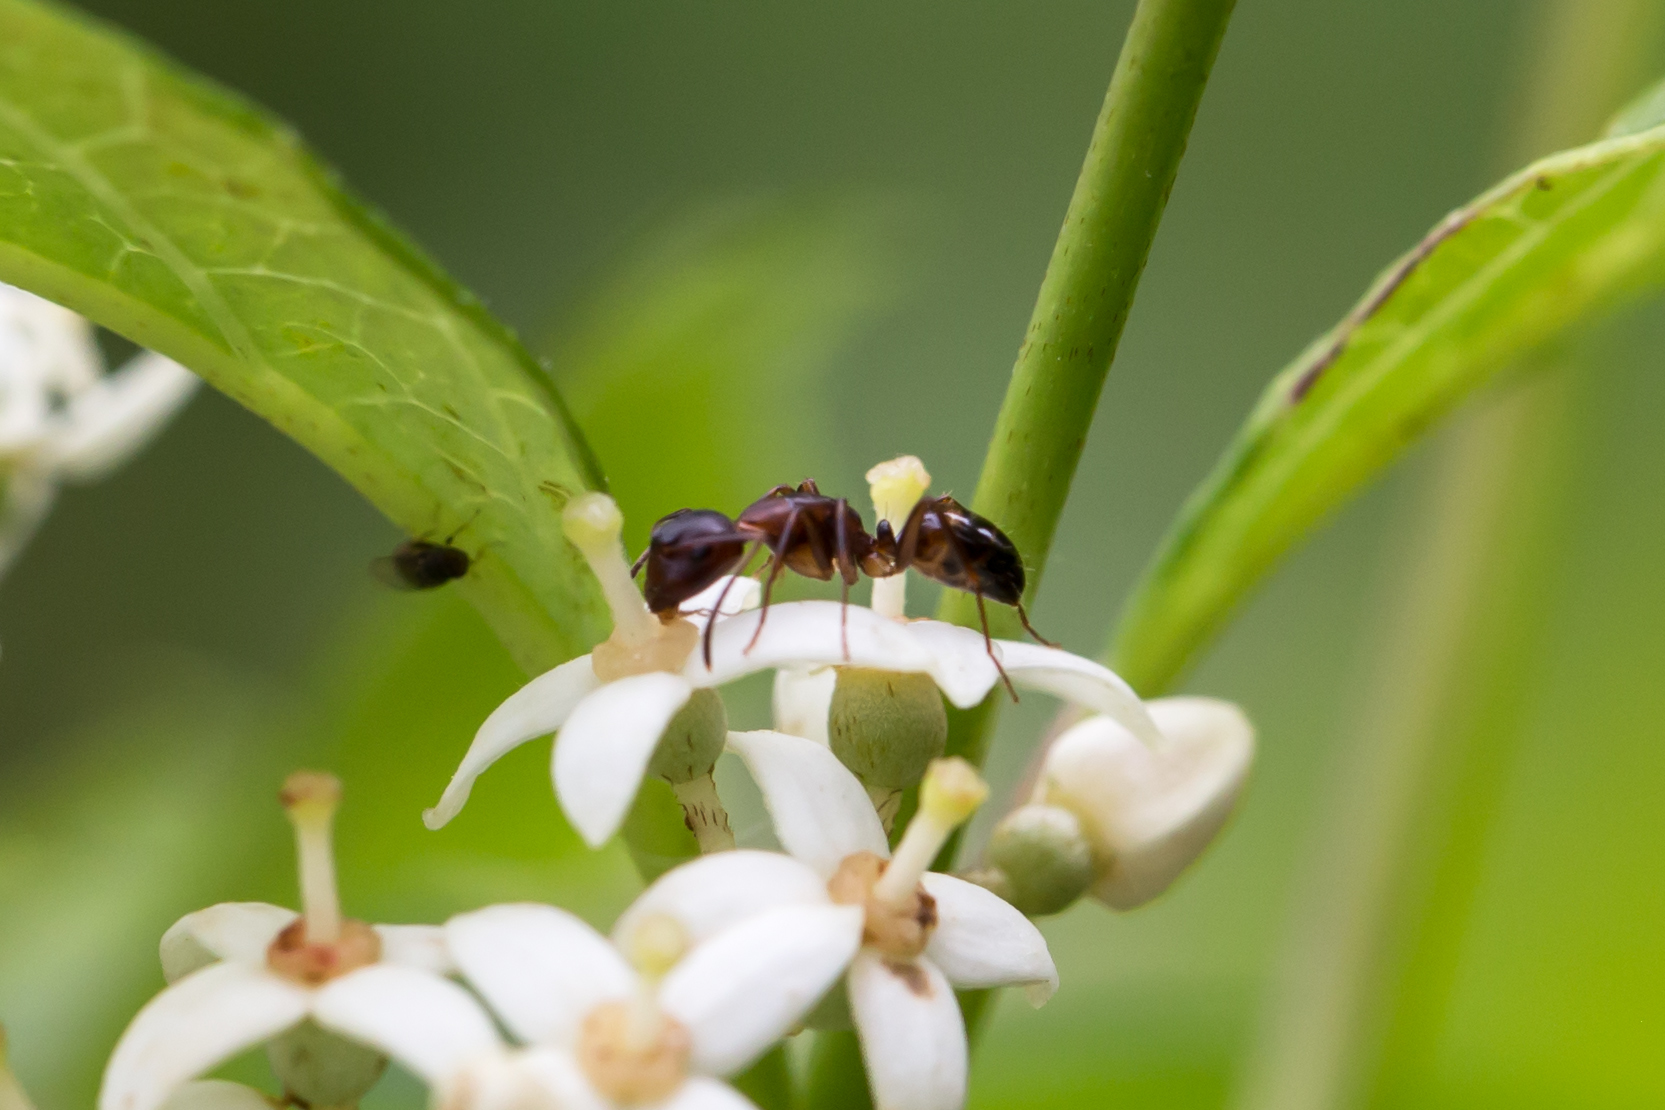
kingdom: Animalia
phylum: Arthropoda
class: Insecta
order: Hymenoptera
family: Formicidae
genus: Camponotus
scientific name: Camponotus subbarbatus
